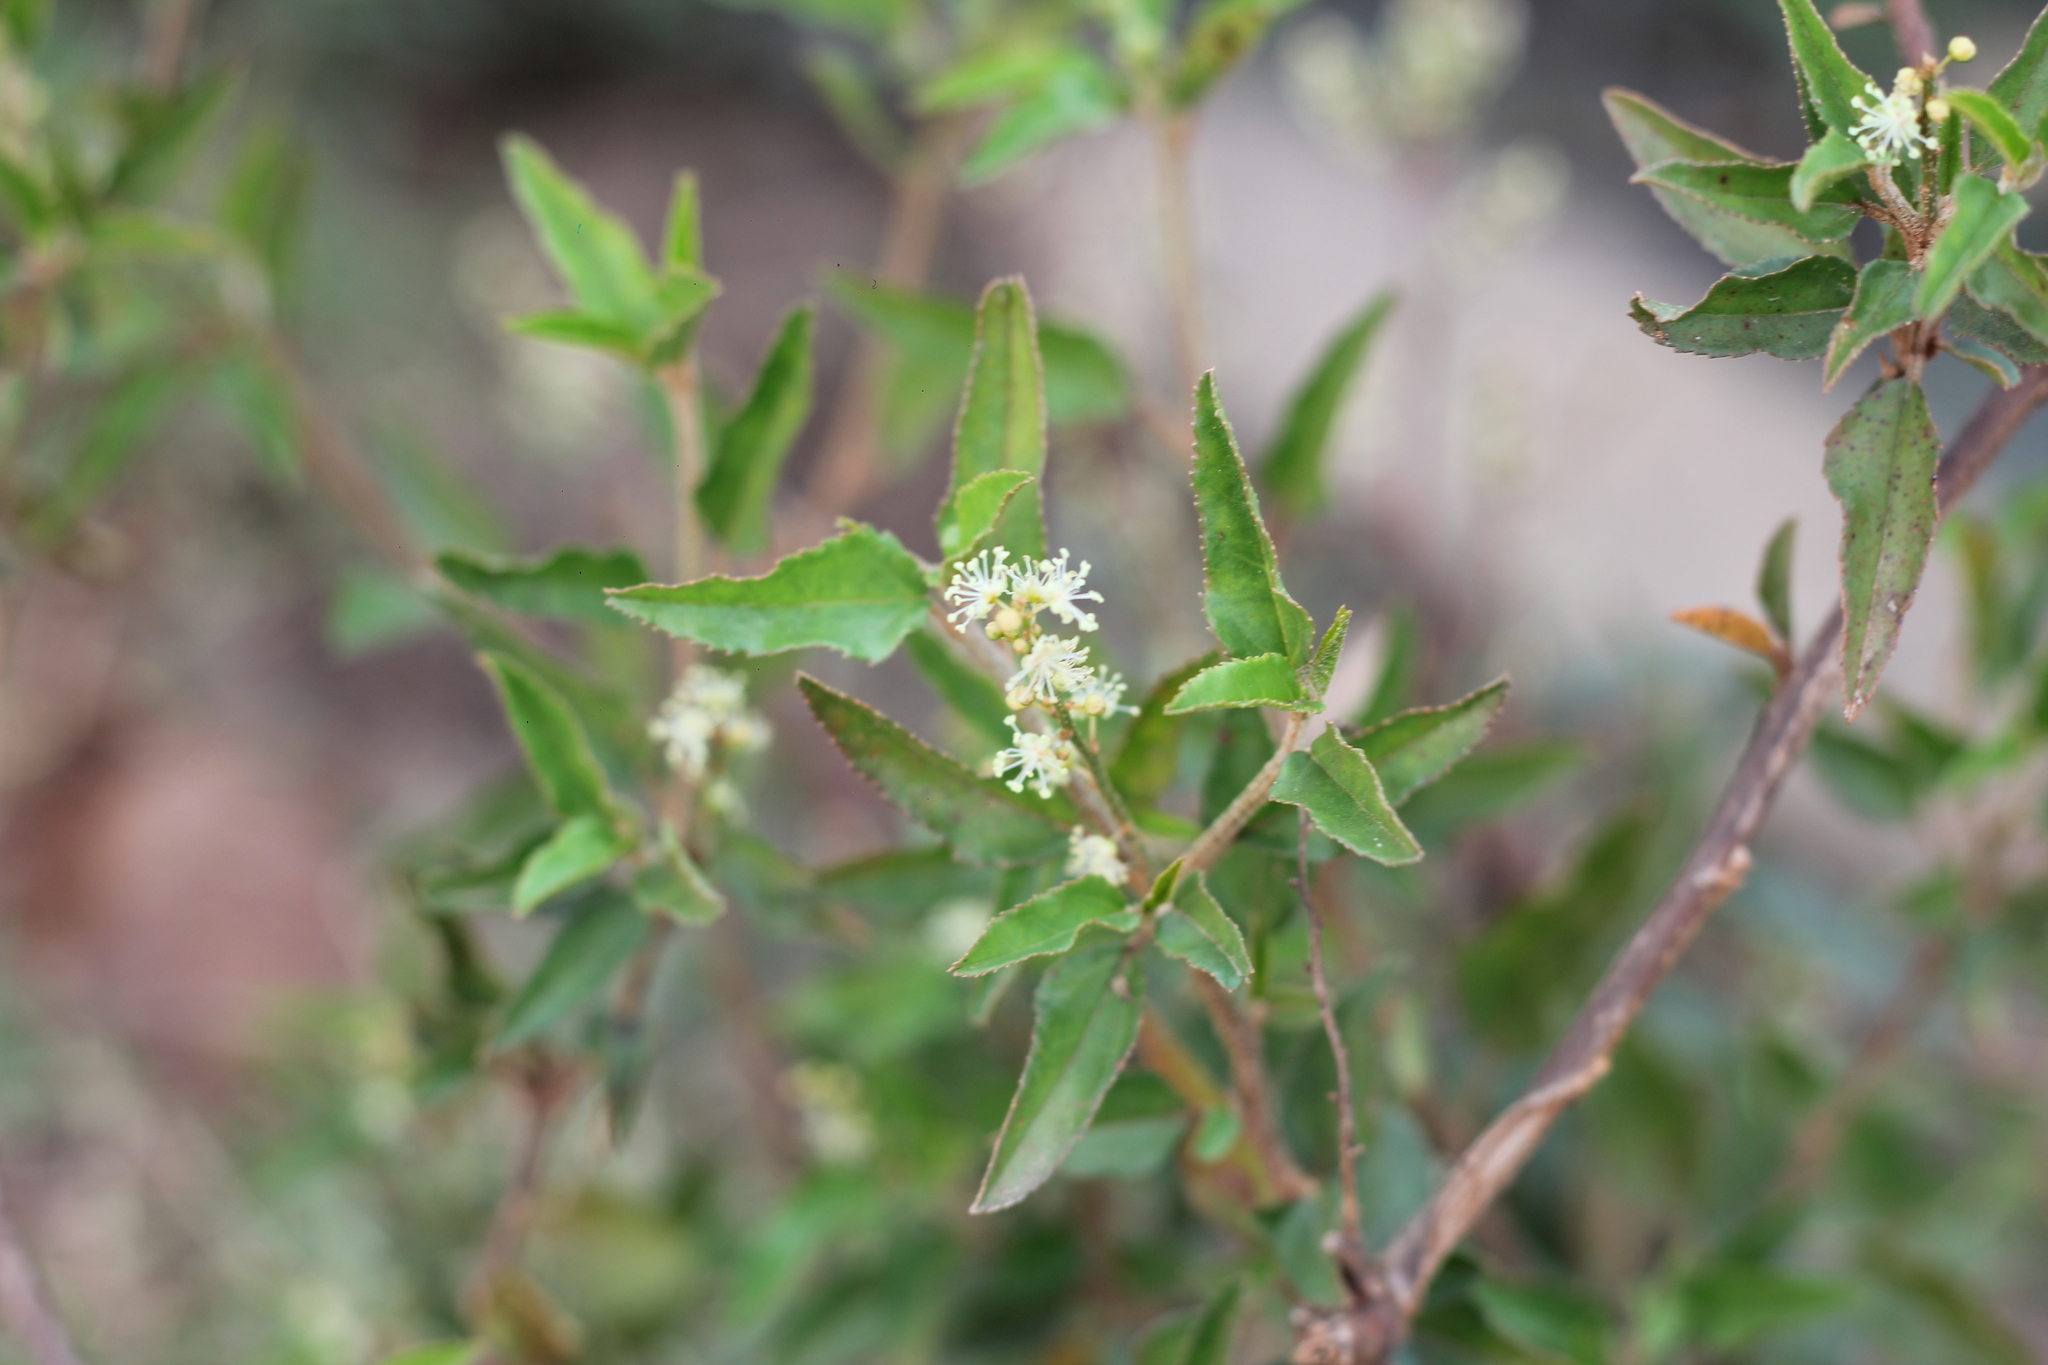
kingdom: Plantae
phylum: Tracheophyta
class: Magnoliopsida
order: Malpighiales
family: Euphorbiaceae
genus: Croton
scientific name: Croton bonplandianus
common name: Bonpland's croton
